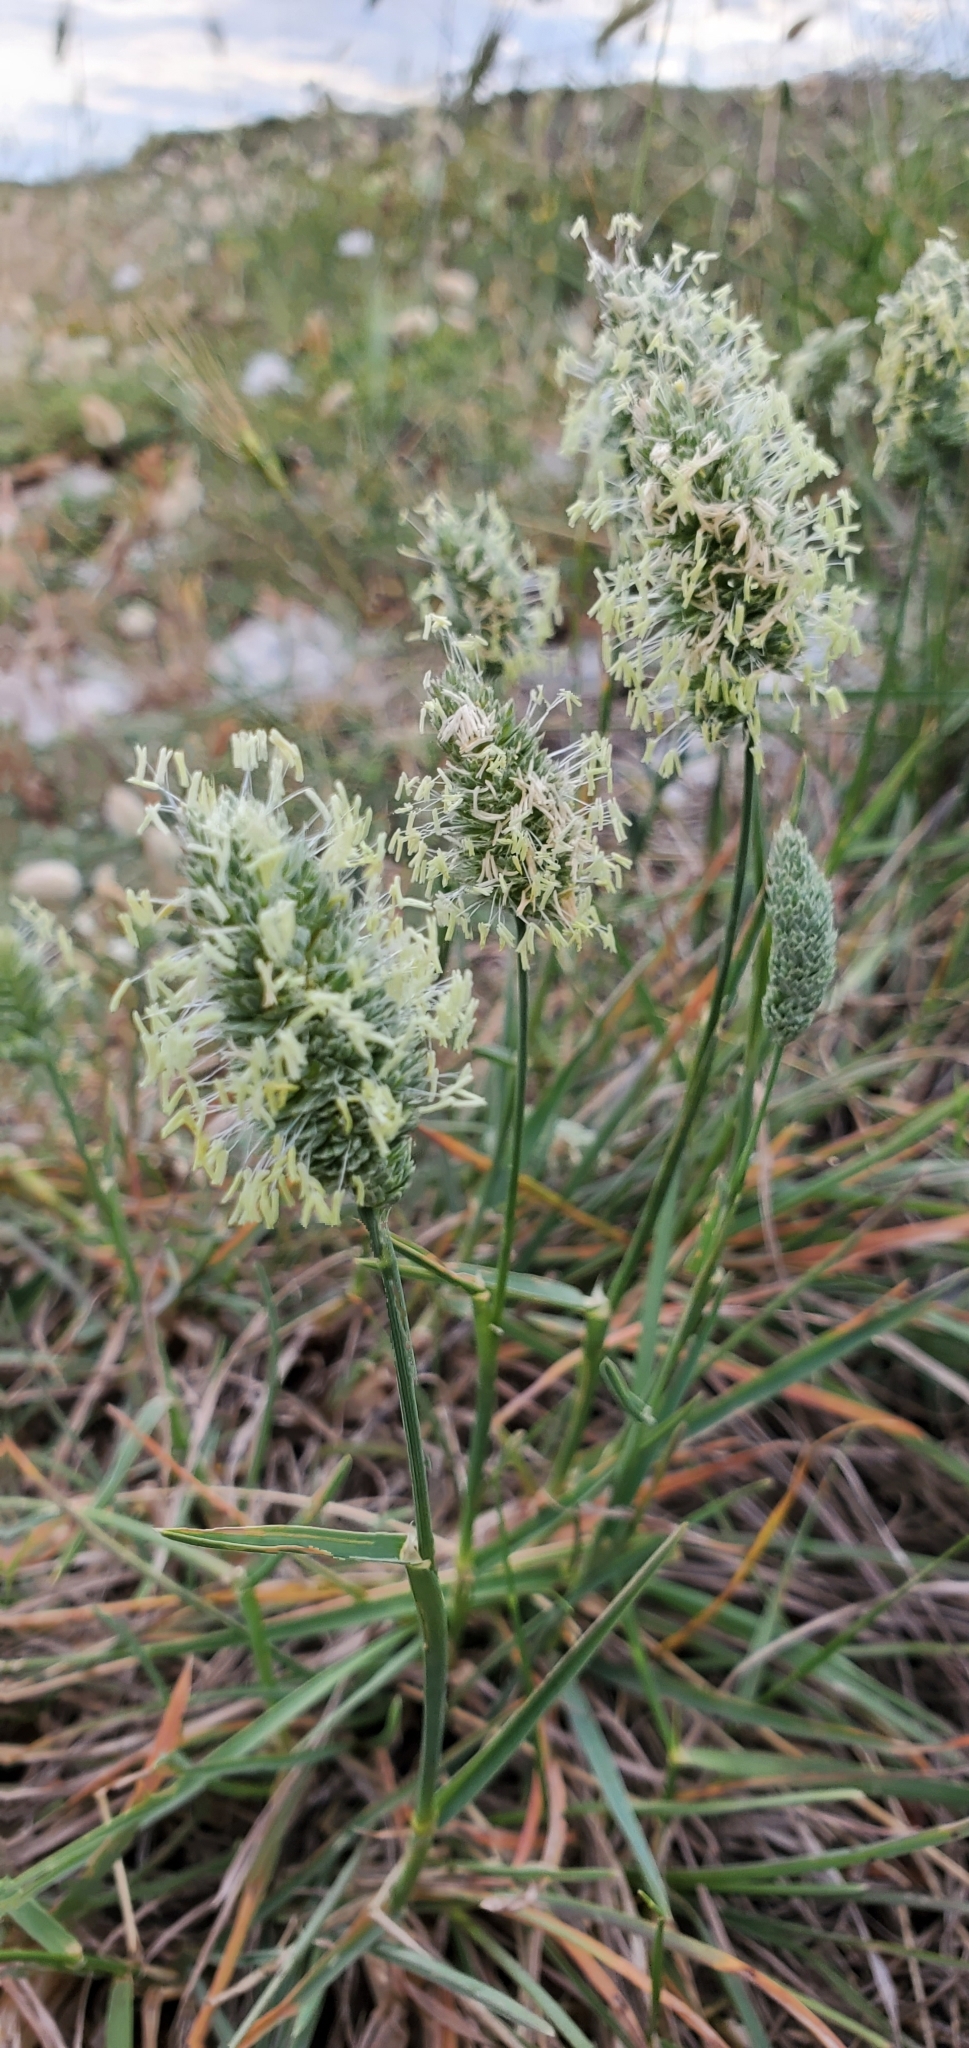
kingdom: Plantae
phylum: Tracheophyta
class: Liliopsida
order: Poales
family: Poaceae
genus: Dactylis
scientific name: Dactylis glomerata
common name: Orchardgrass
